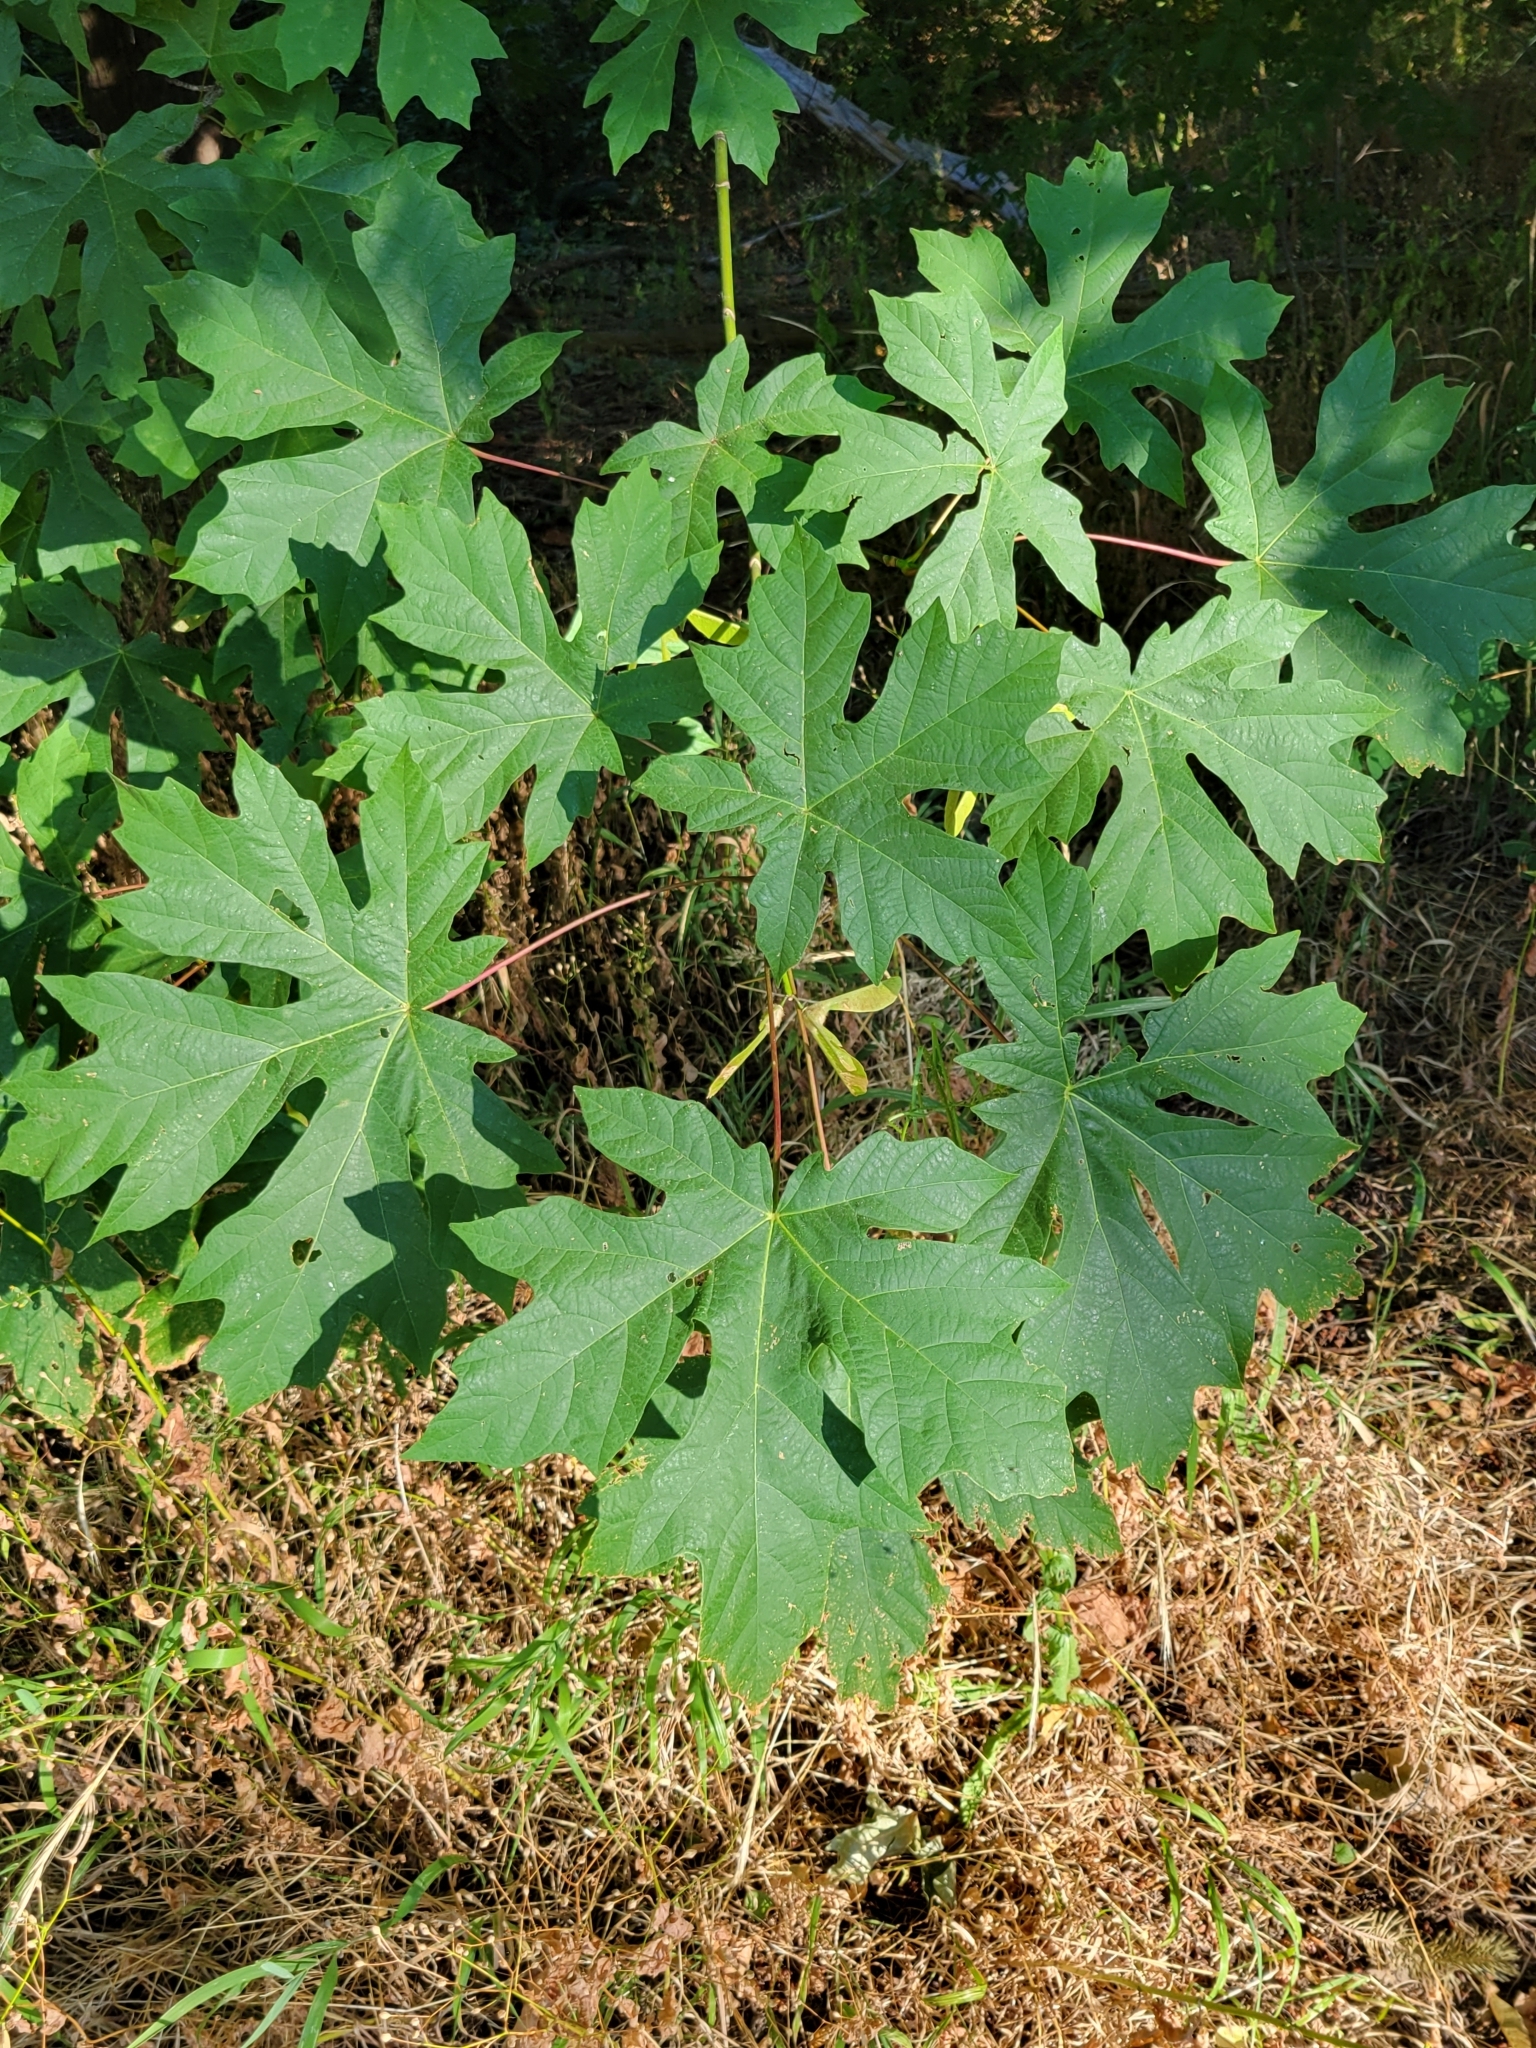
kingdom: Plantae
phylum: Tracheophyta
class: Magnoliopsida
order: Sapindales
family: Sapindaceae
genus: Acer
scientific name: Acer macrophyllum
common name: Oregon maple
